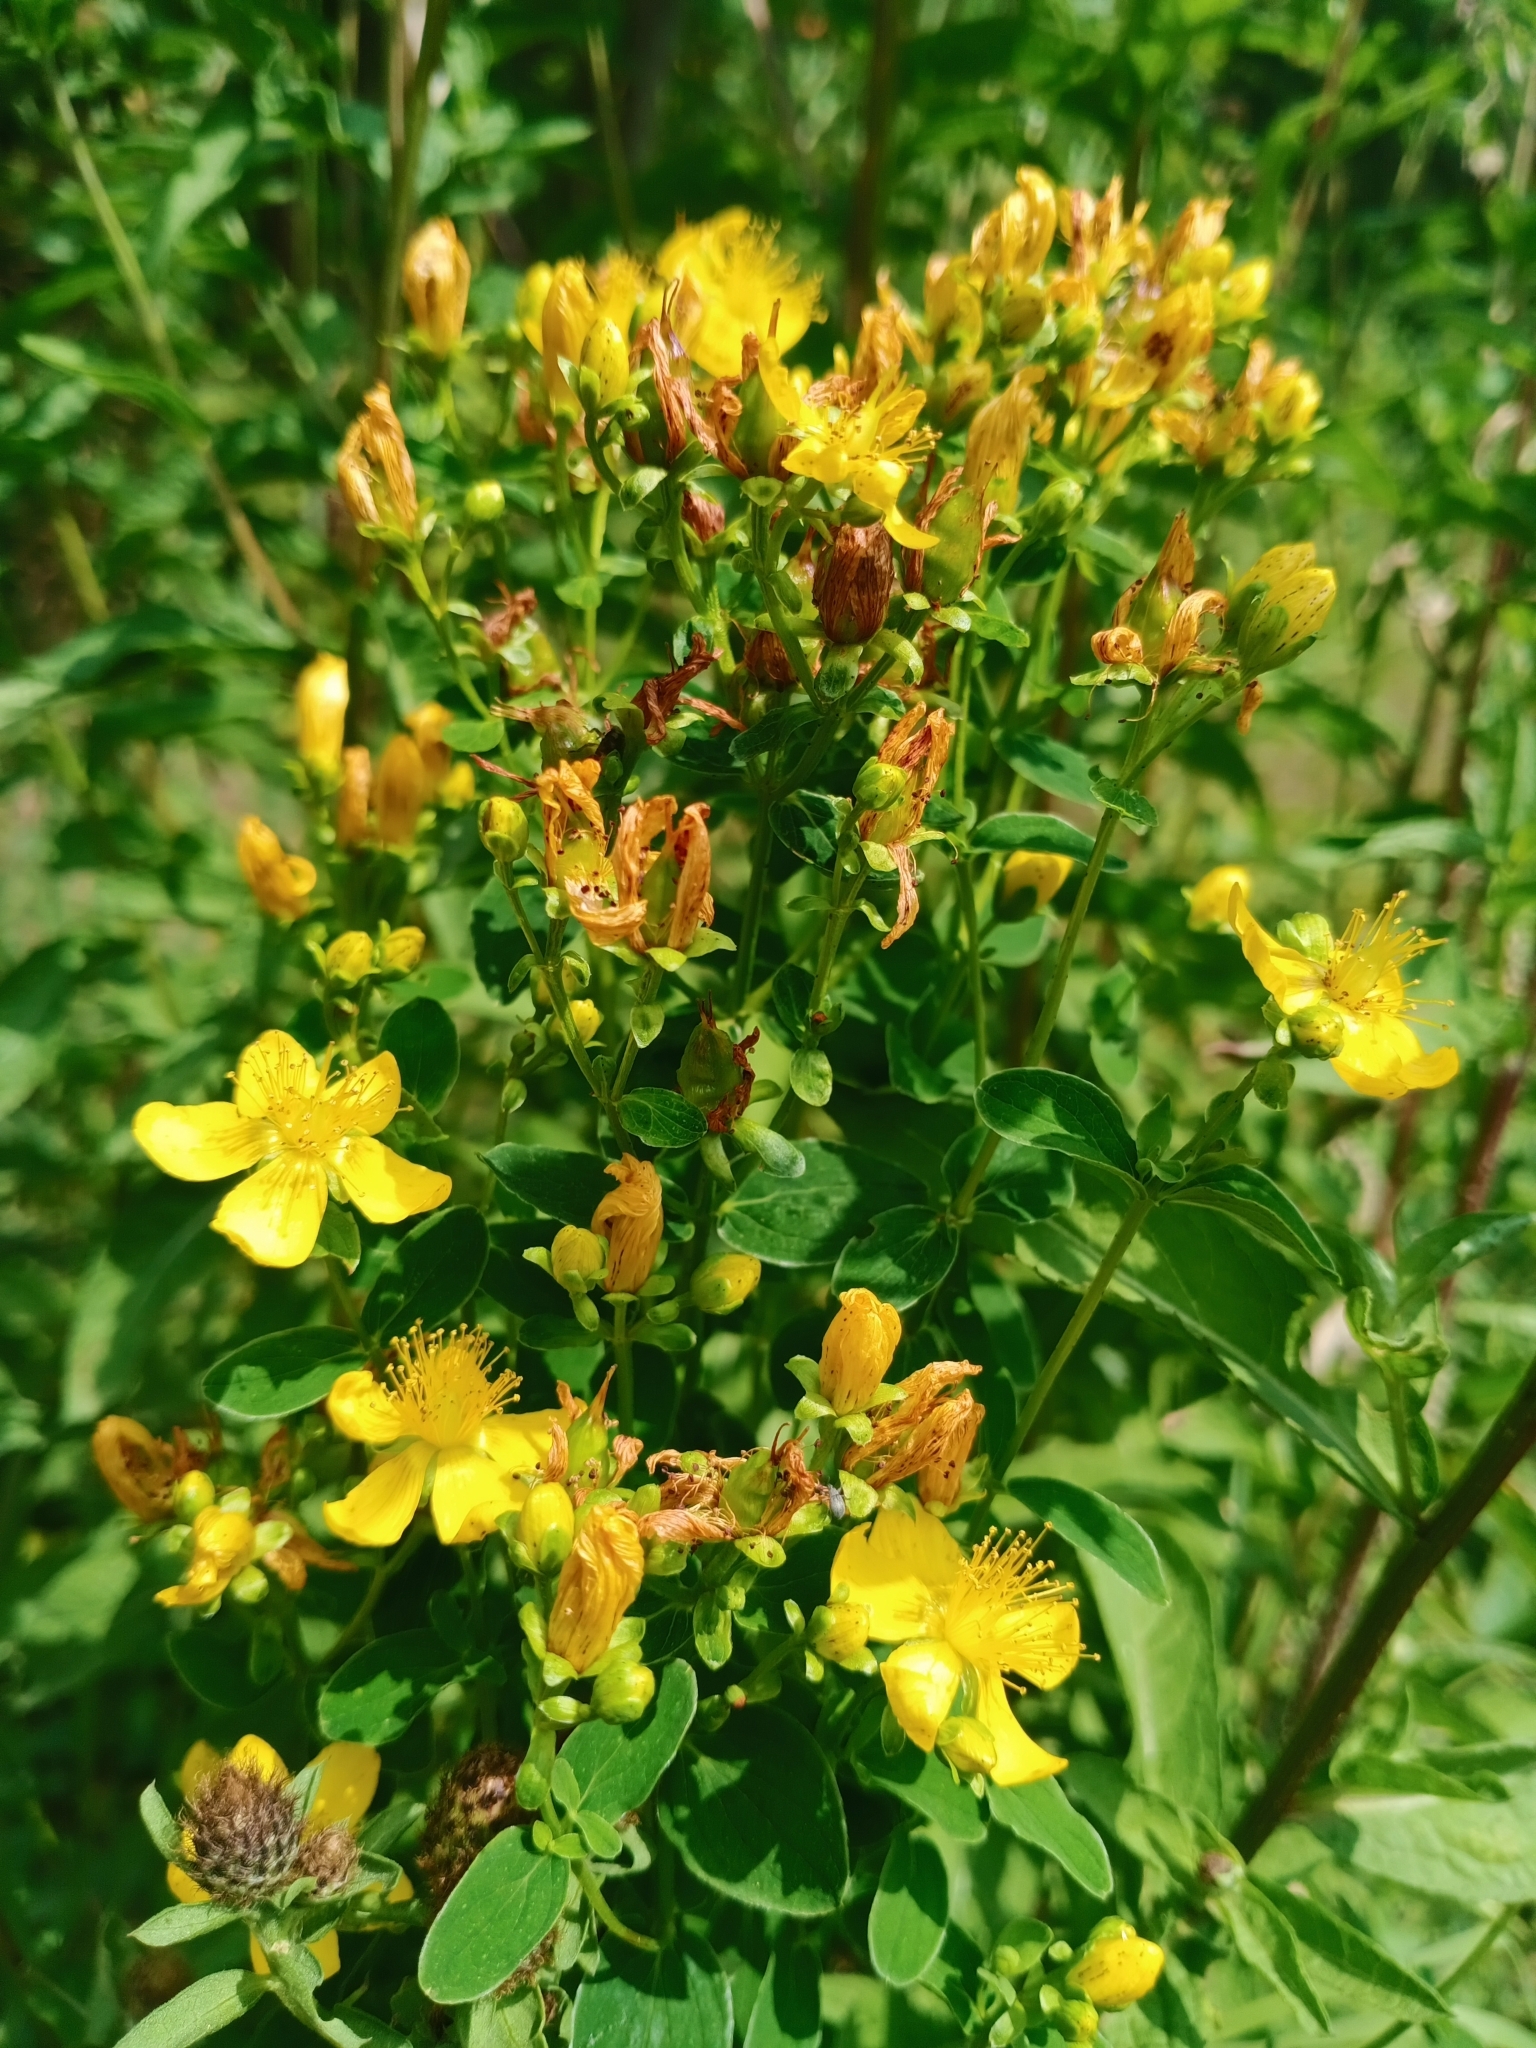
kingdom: Plantae
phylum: Tracheophyta
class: Magnoliopsida
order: Malpighiales
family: Hypericaceae
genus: Hypericum
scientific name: Hypericum maculatum
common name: Imperforate st. john's-wort
